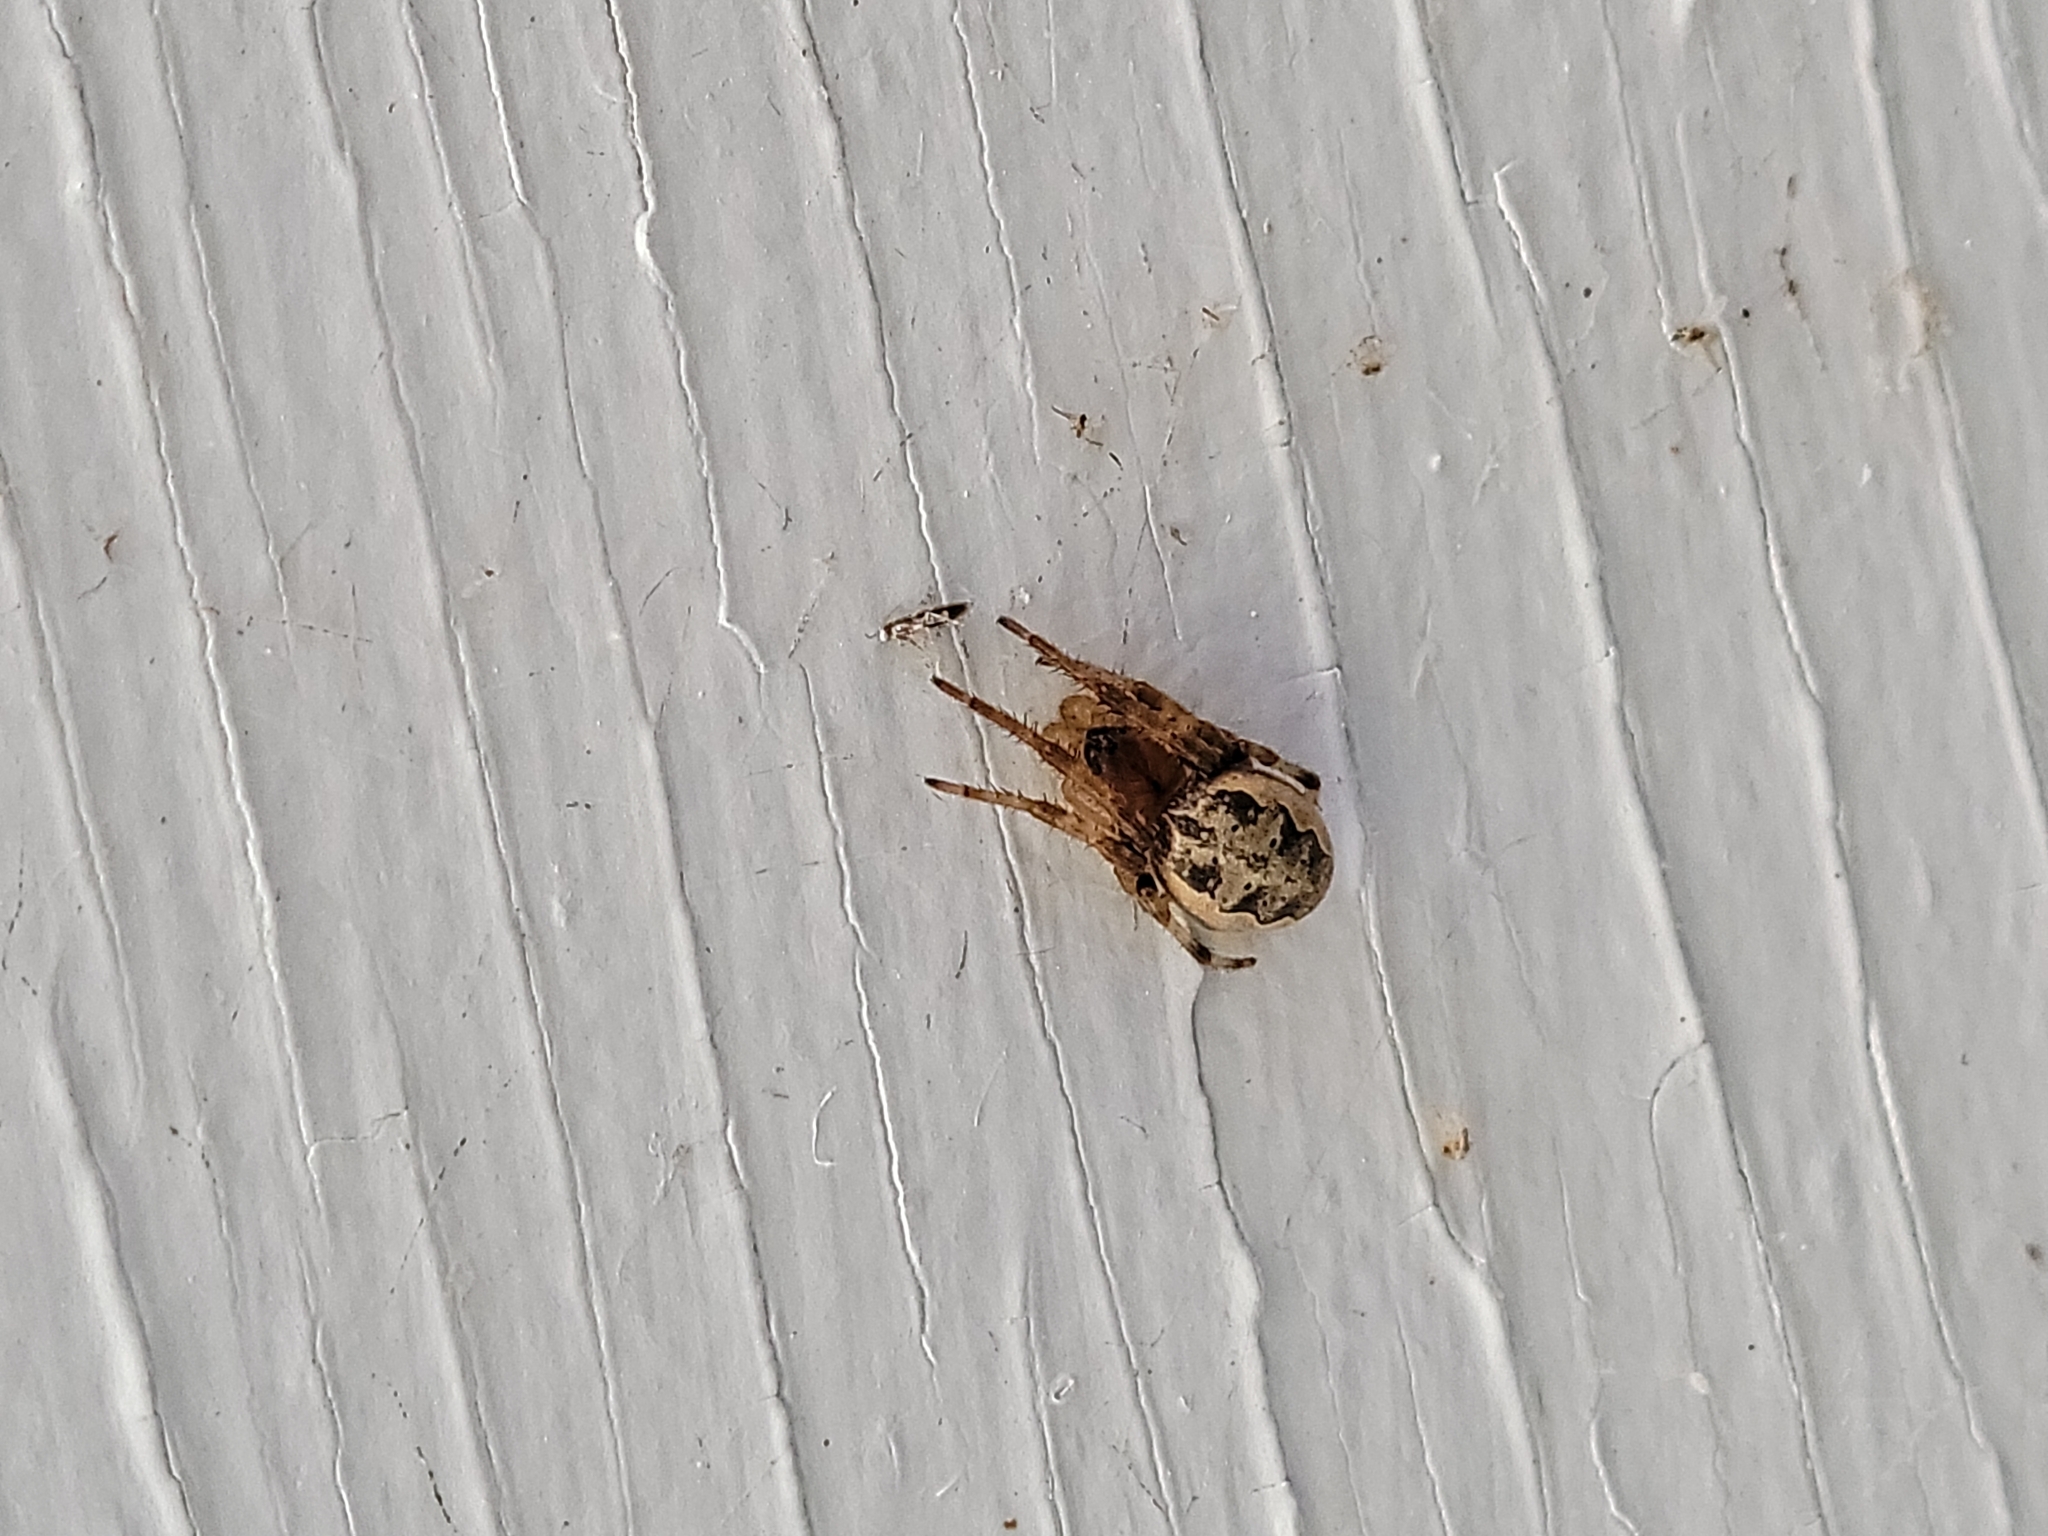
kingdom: Animalia
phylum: Arthropoda
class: Arachnida
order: Araneae
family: Araneidae
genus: Larinioides
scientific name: Larinioides cornutus
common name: Furrow orbweaver
